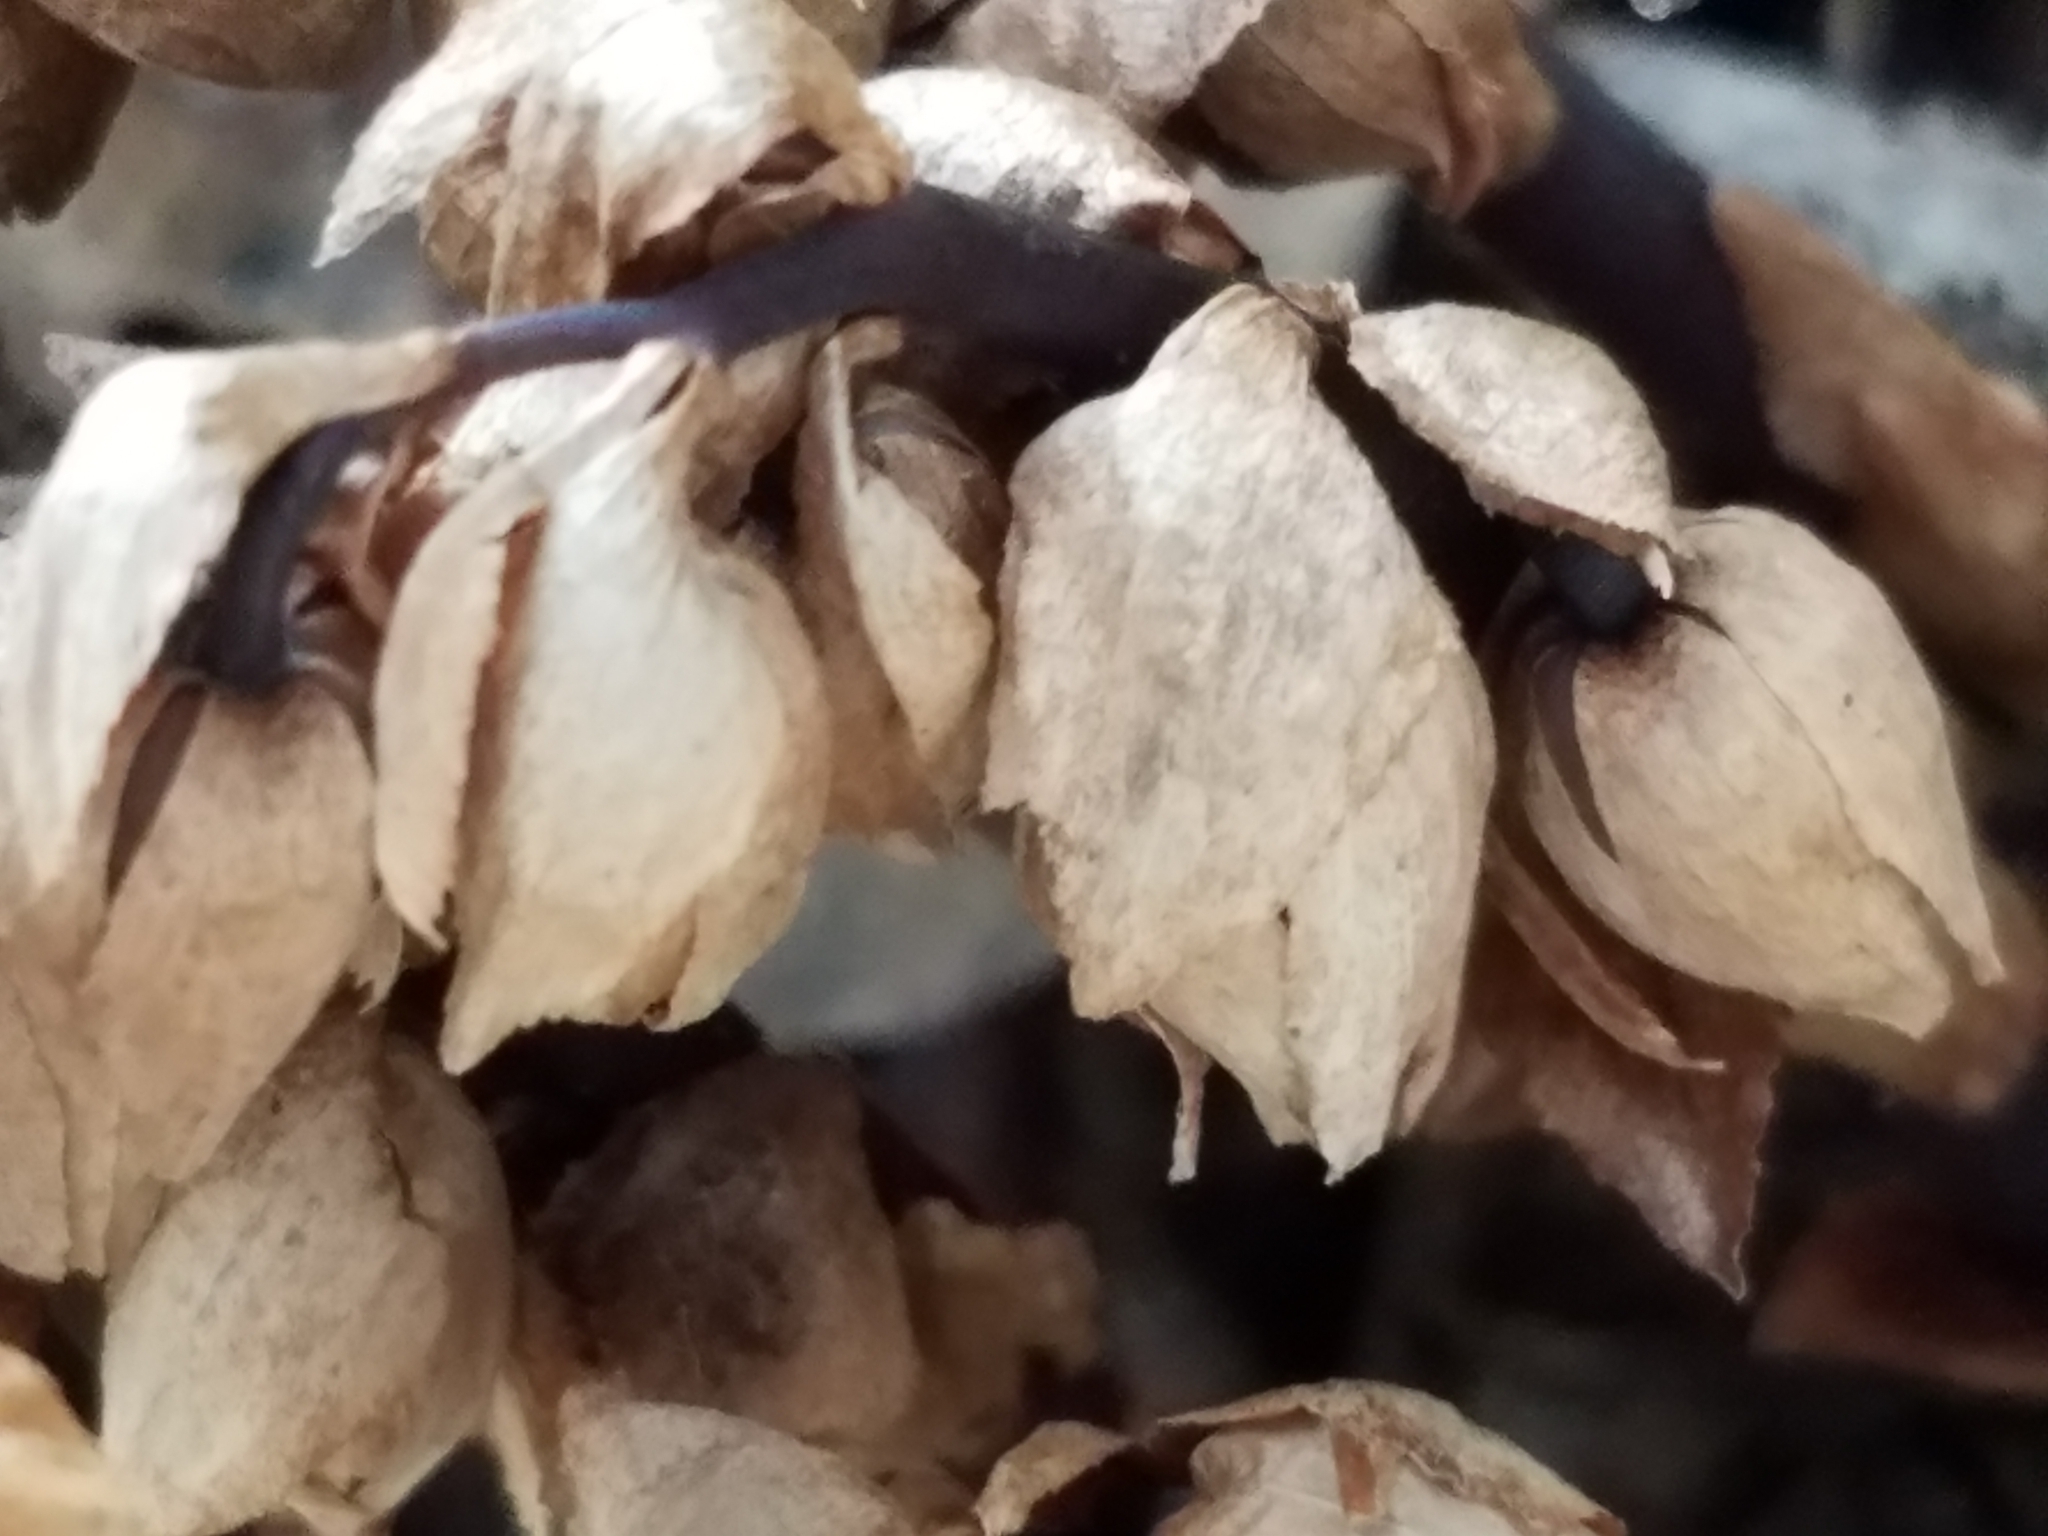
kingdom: Plantae
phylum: Tracheophyta
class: Magnoliopsida
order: Ericales
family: Ericaceae
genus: Monotropsis
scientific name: Monotropsis odorata
